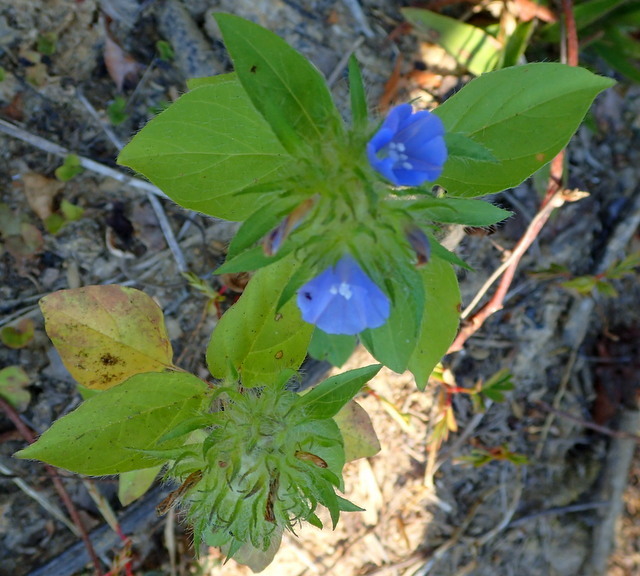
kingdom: Plantae
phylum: Tracheophyta
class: Magnoliopsida
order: Solanales
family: Convolvulaceae
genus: Jacquemontia
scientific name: Jacquemontia tamnifolia
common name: Hairy clustervine
